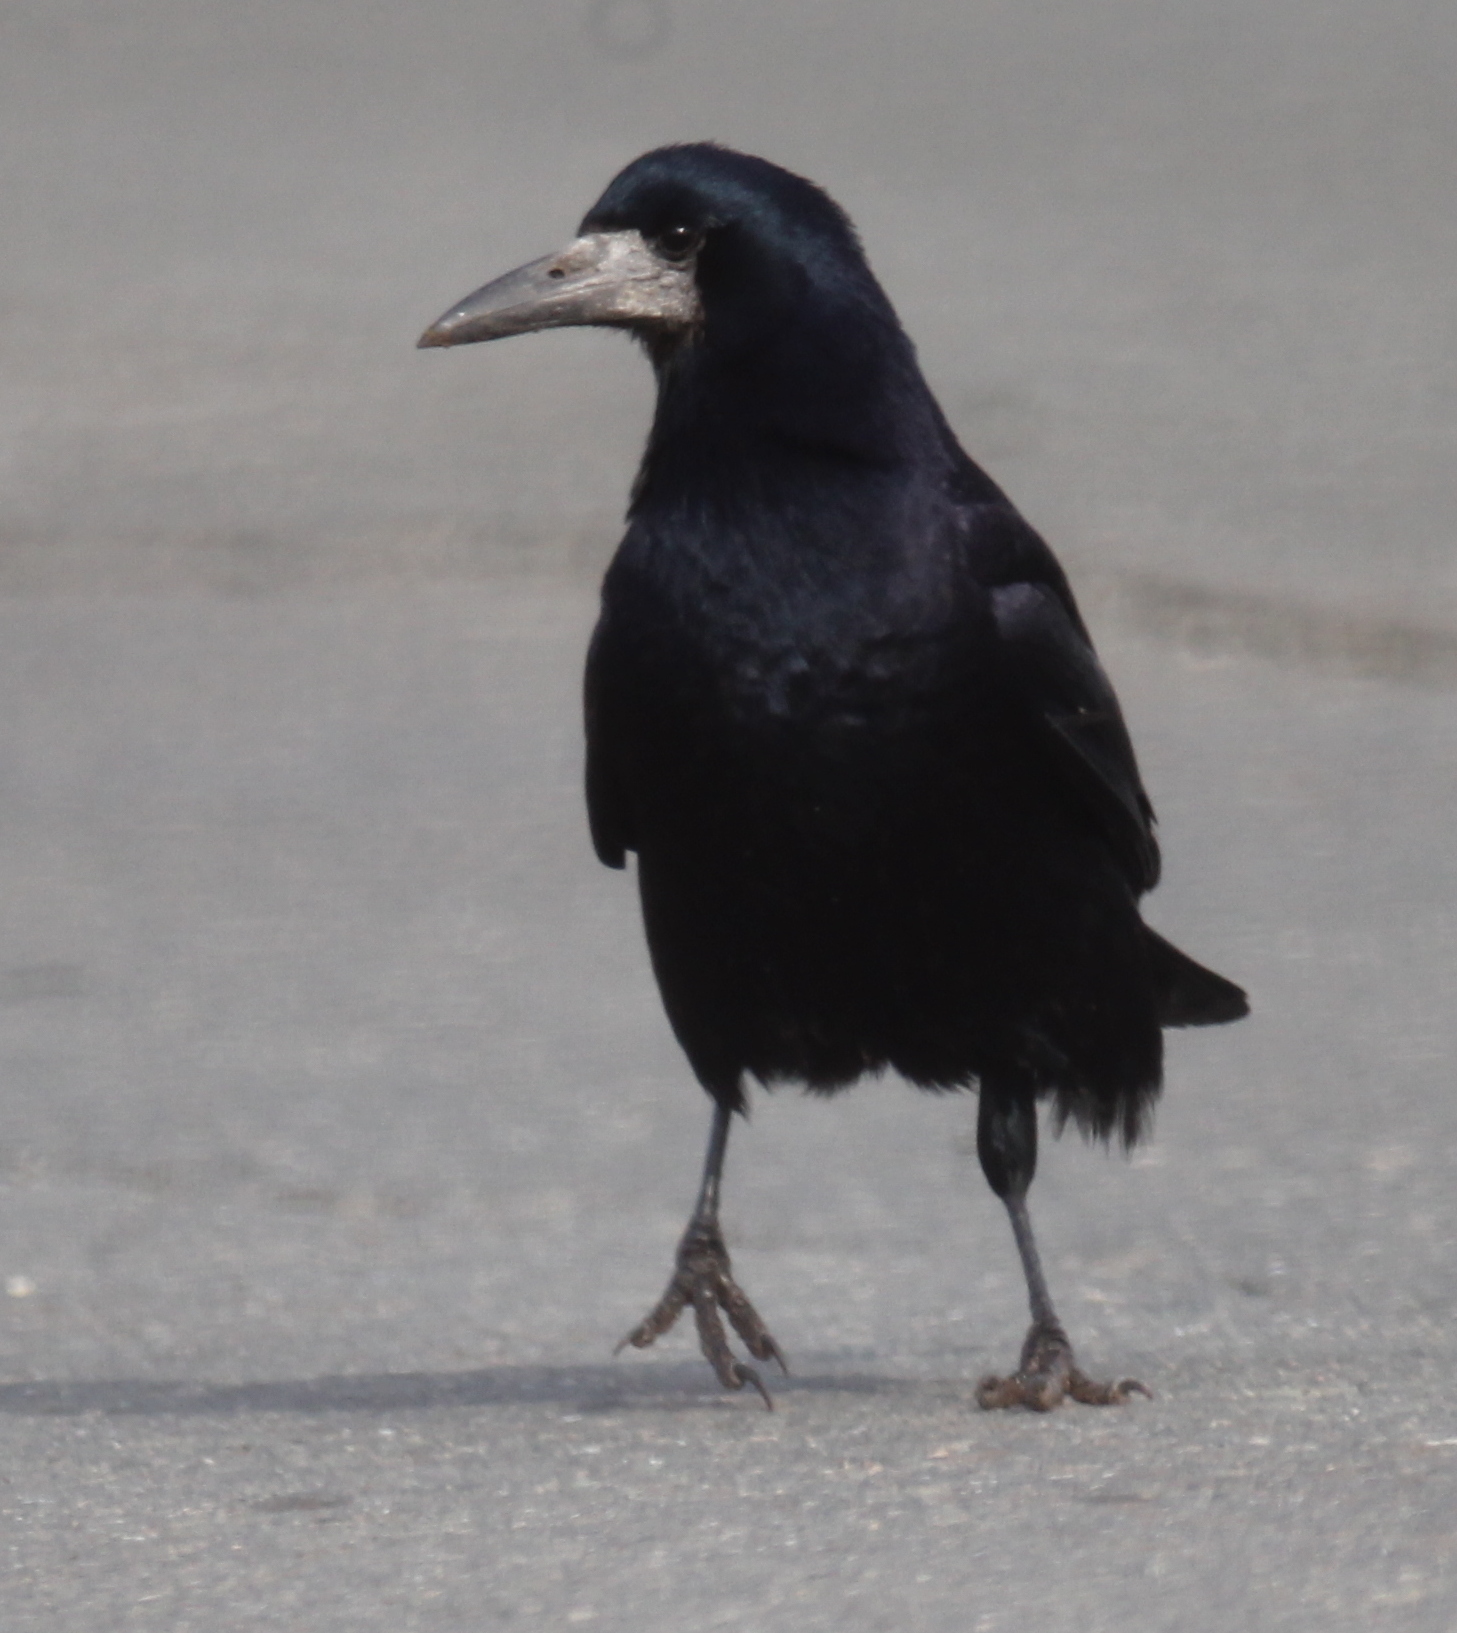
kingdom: Animalia
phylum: Chordata
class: Aves
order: Passeriformes
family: Corvidae
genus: Corvus
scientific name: Corvus frugilegus
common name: Rook
